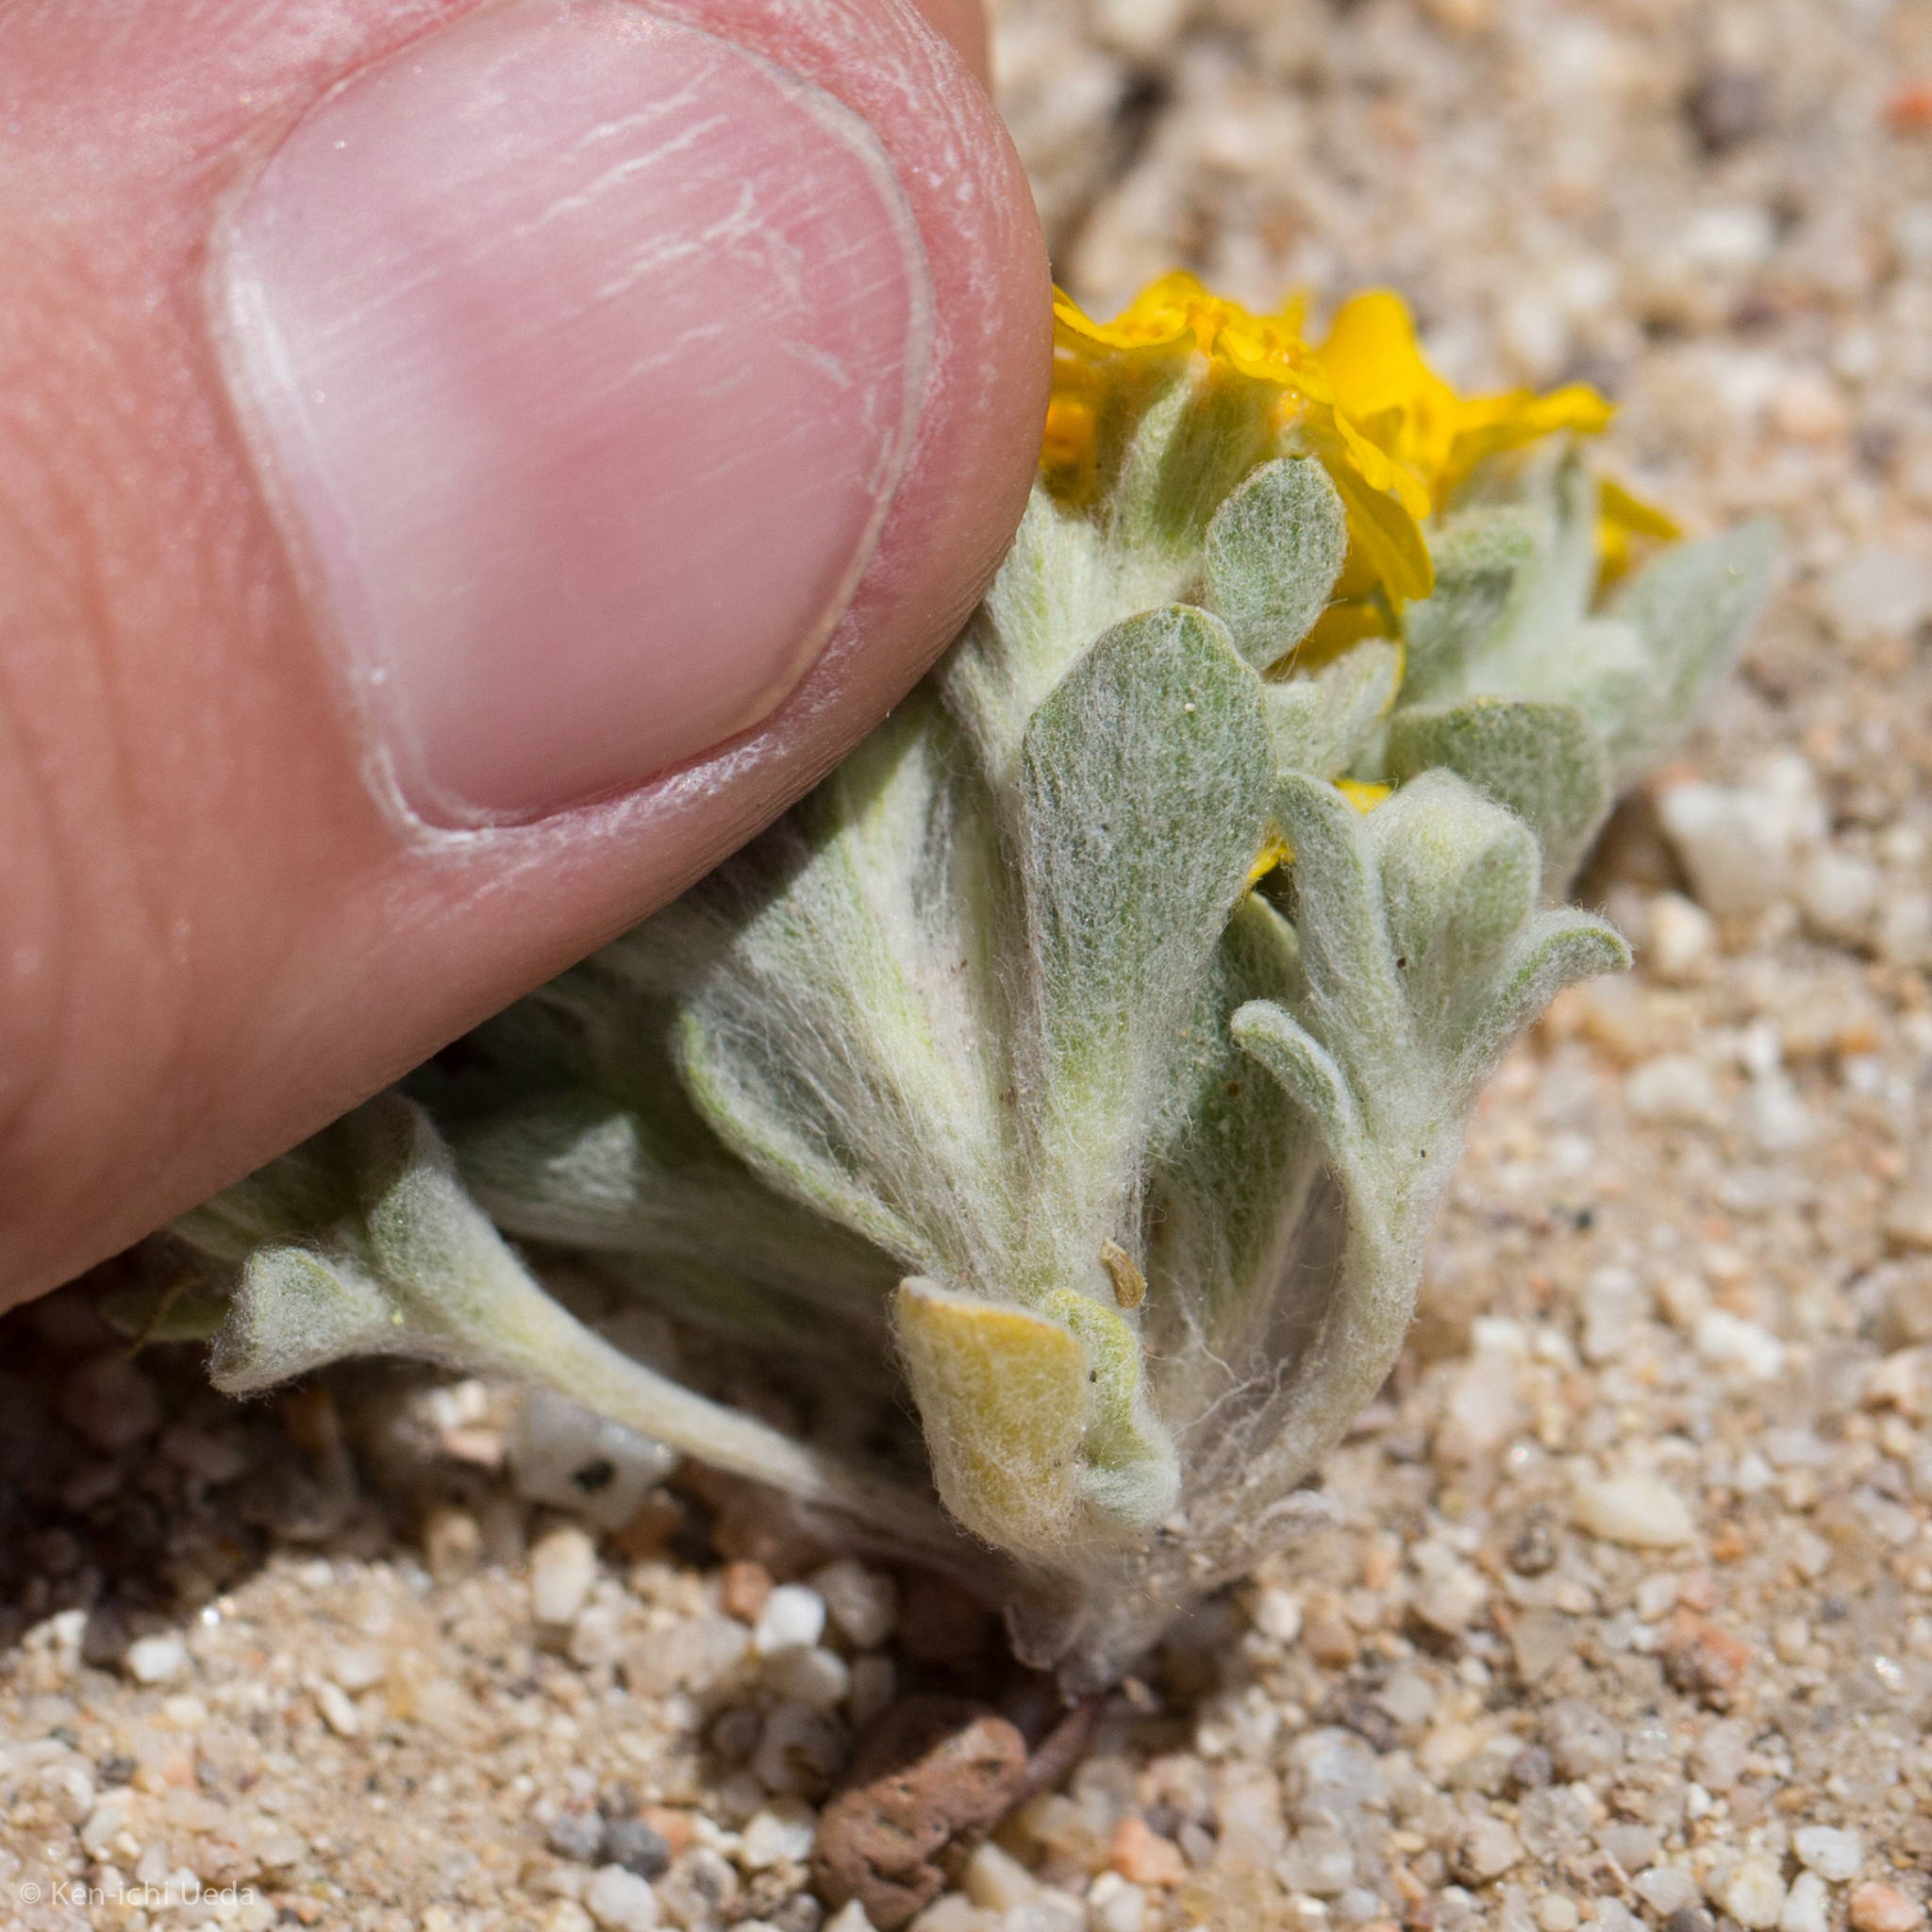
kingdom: Plantae
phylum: Tracheophyta
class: Magnoliopsida
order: Asterales
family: Asteraceae
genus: Eriophyllum
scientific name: Eriophyllum wallacei
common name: Wallace's woolly daisy
